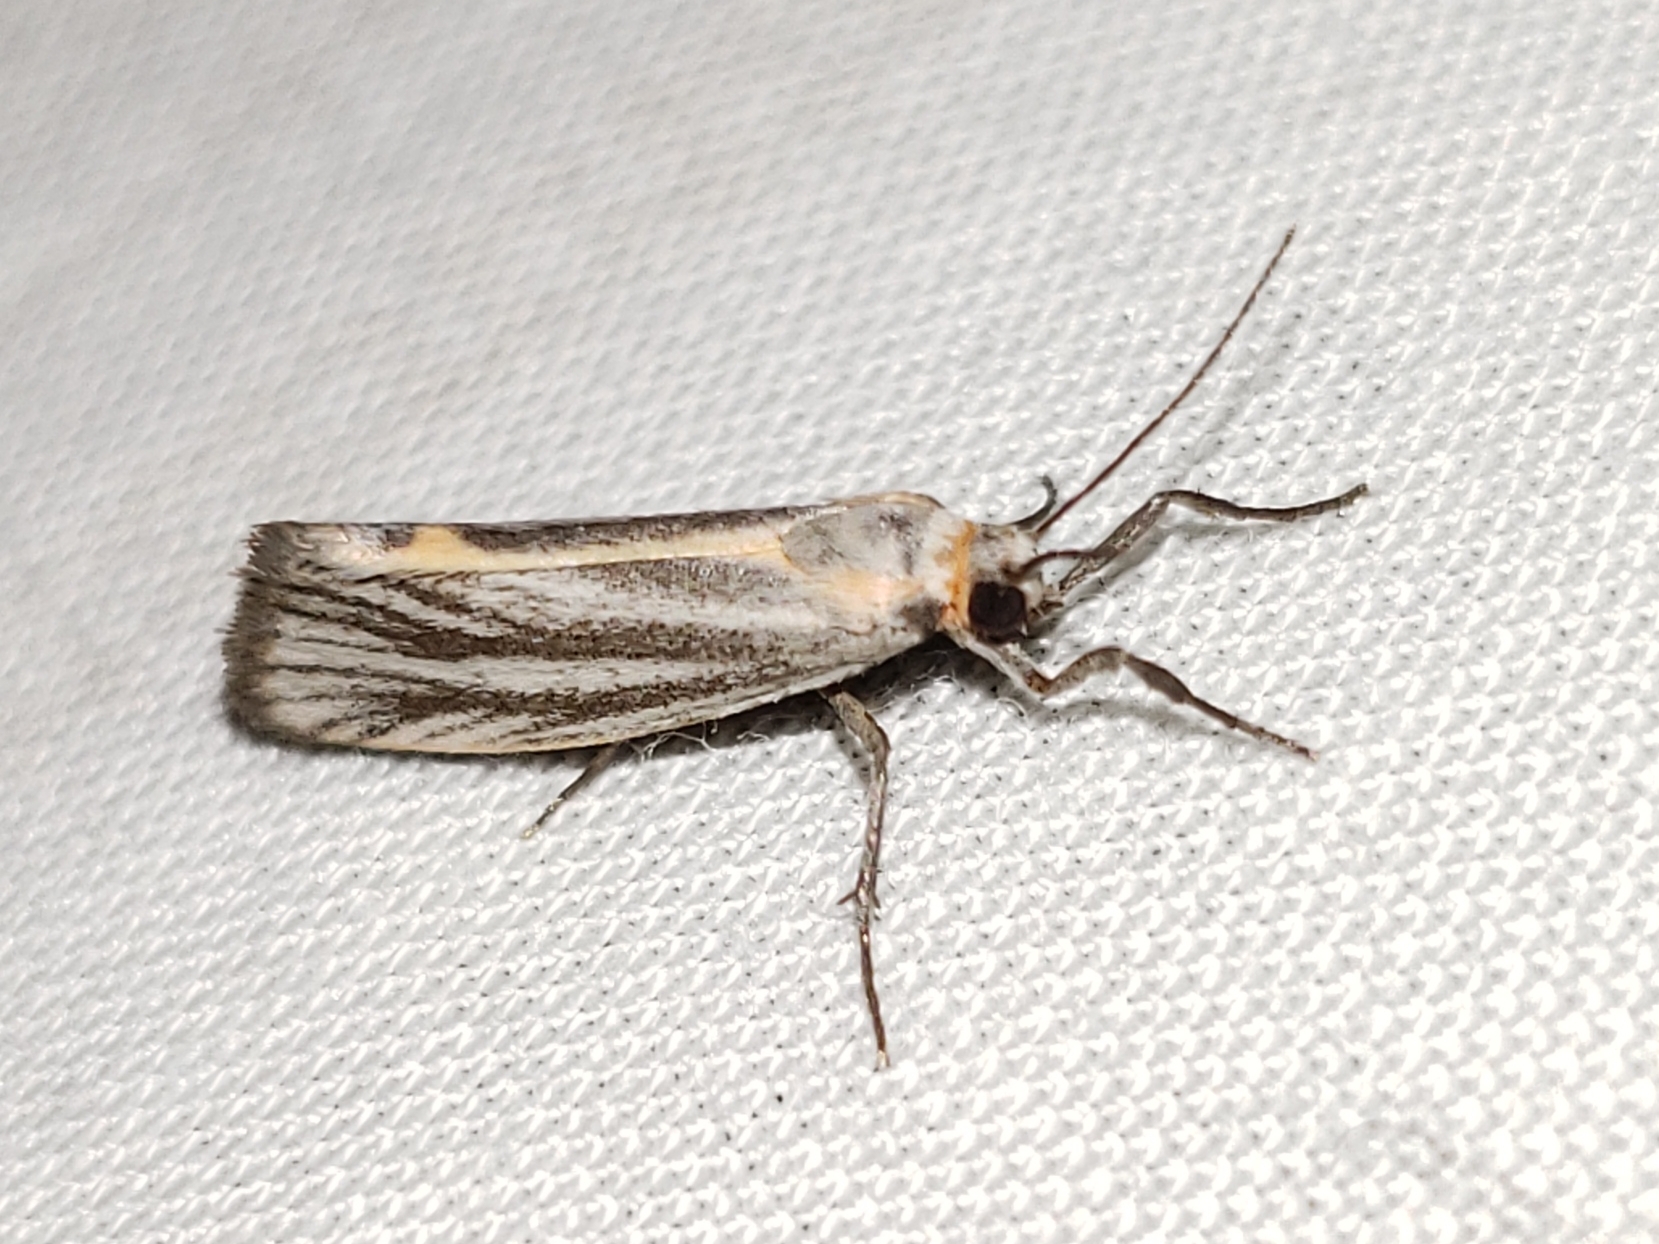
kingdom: Animalia
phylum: Arthropoda
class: Insecta
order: Lepidoptera
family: Erebidae
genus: Cisthene
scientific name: Cisthene striata
